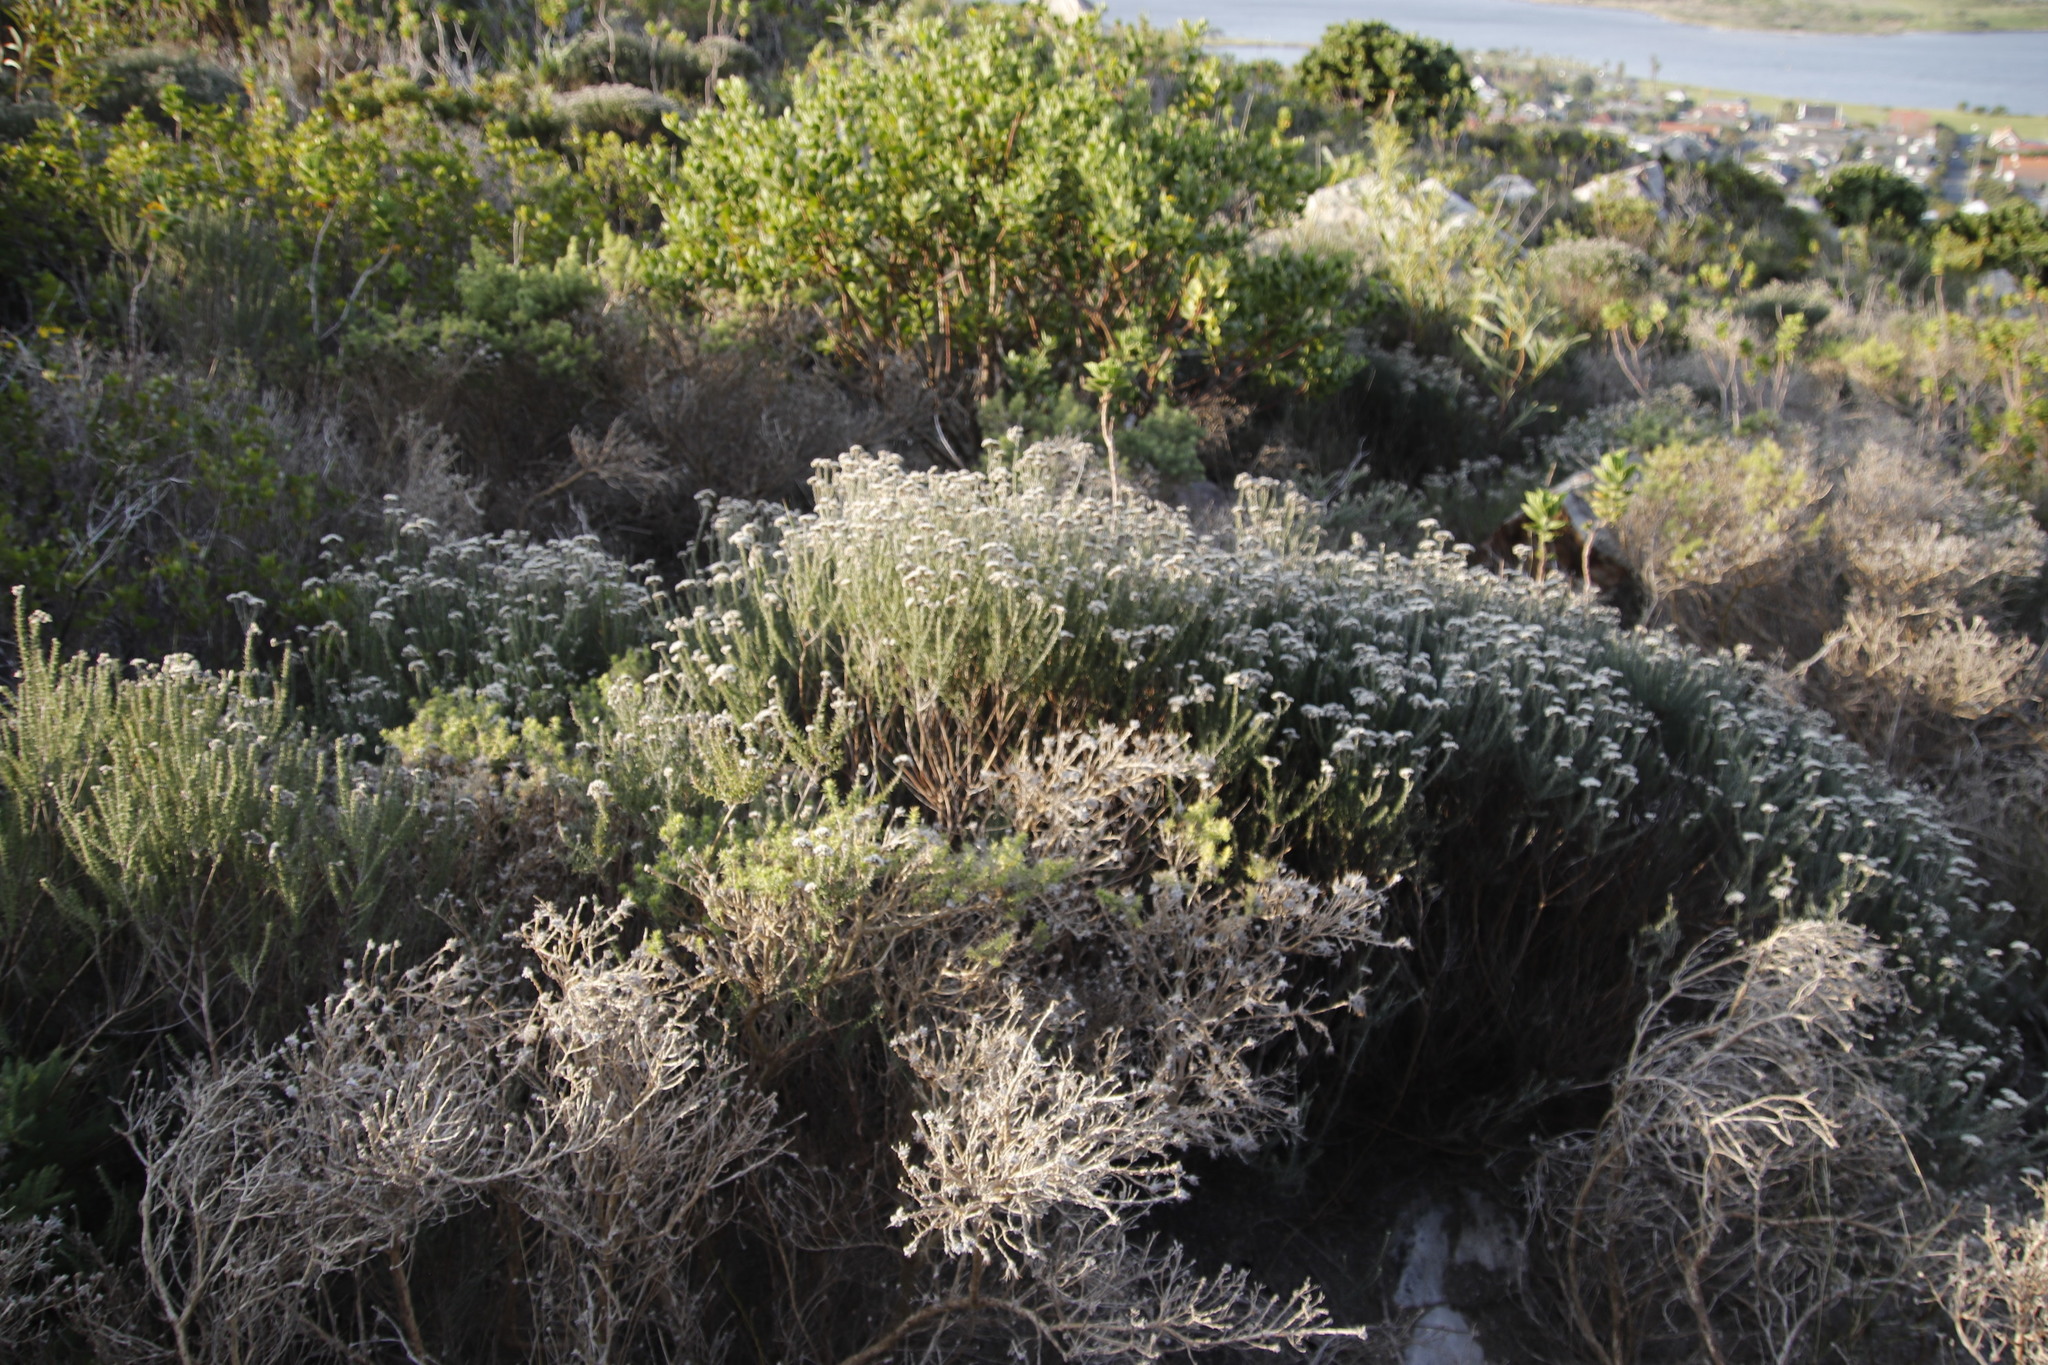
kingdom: Plantae
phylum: Tracheophyta
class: Magnoliopsida
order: Asterales
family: Asteraceae
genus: Metalasia
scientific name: Metalasia densa
